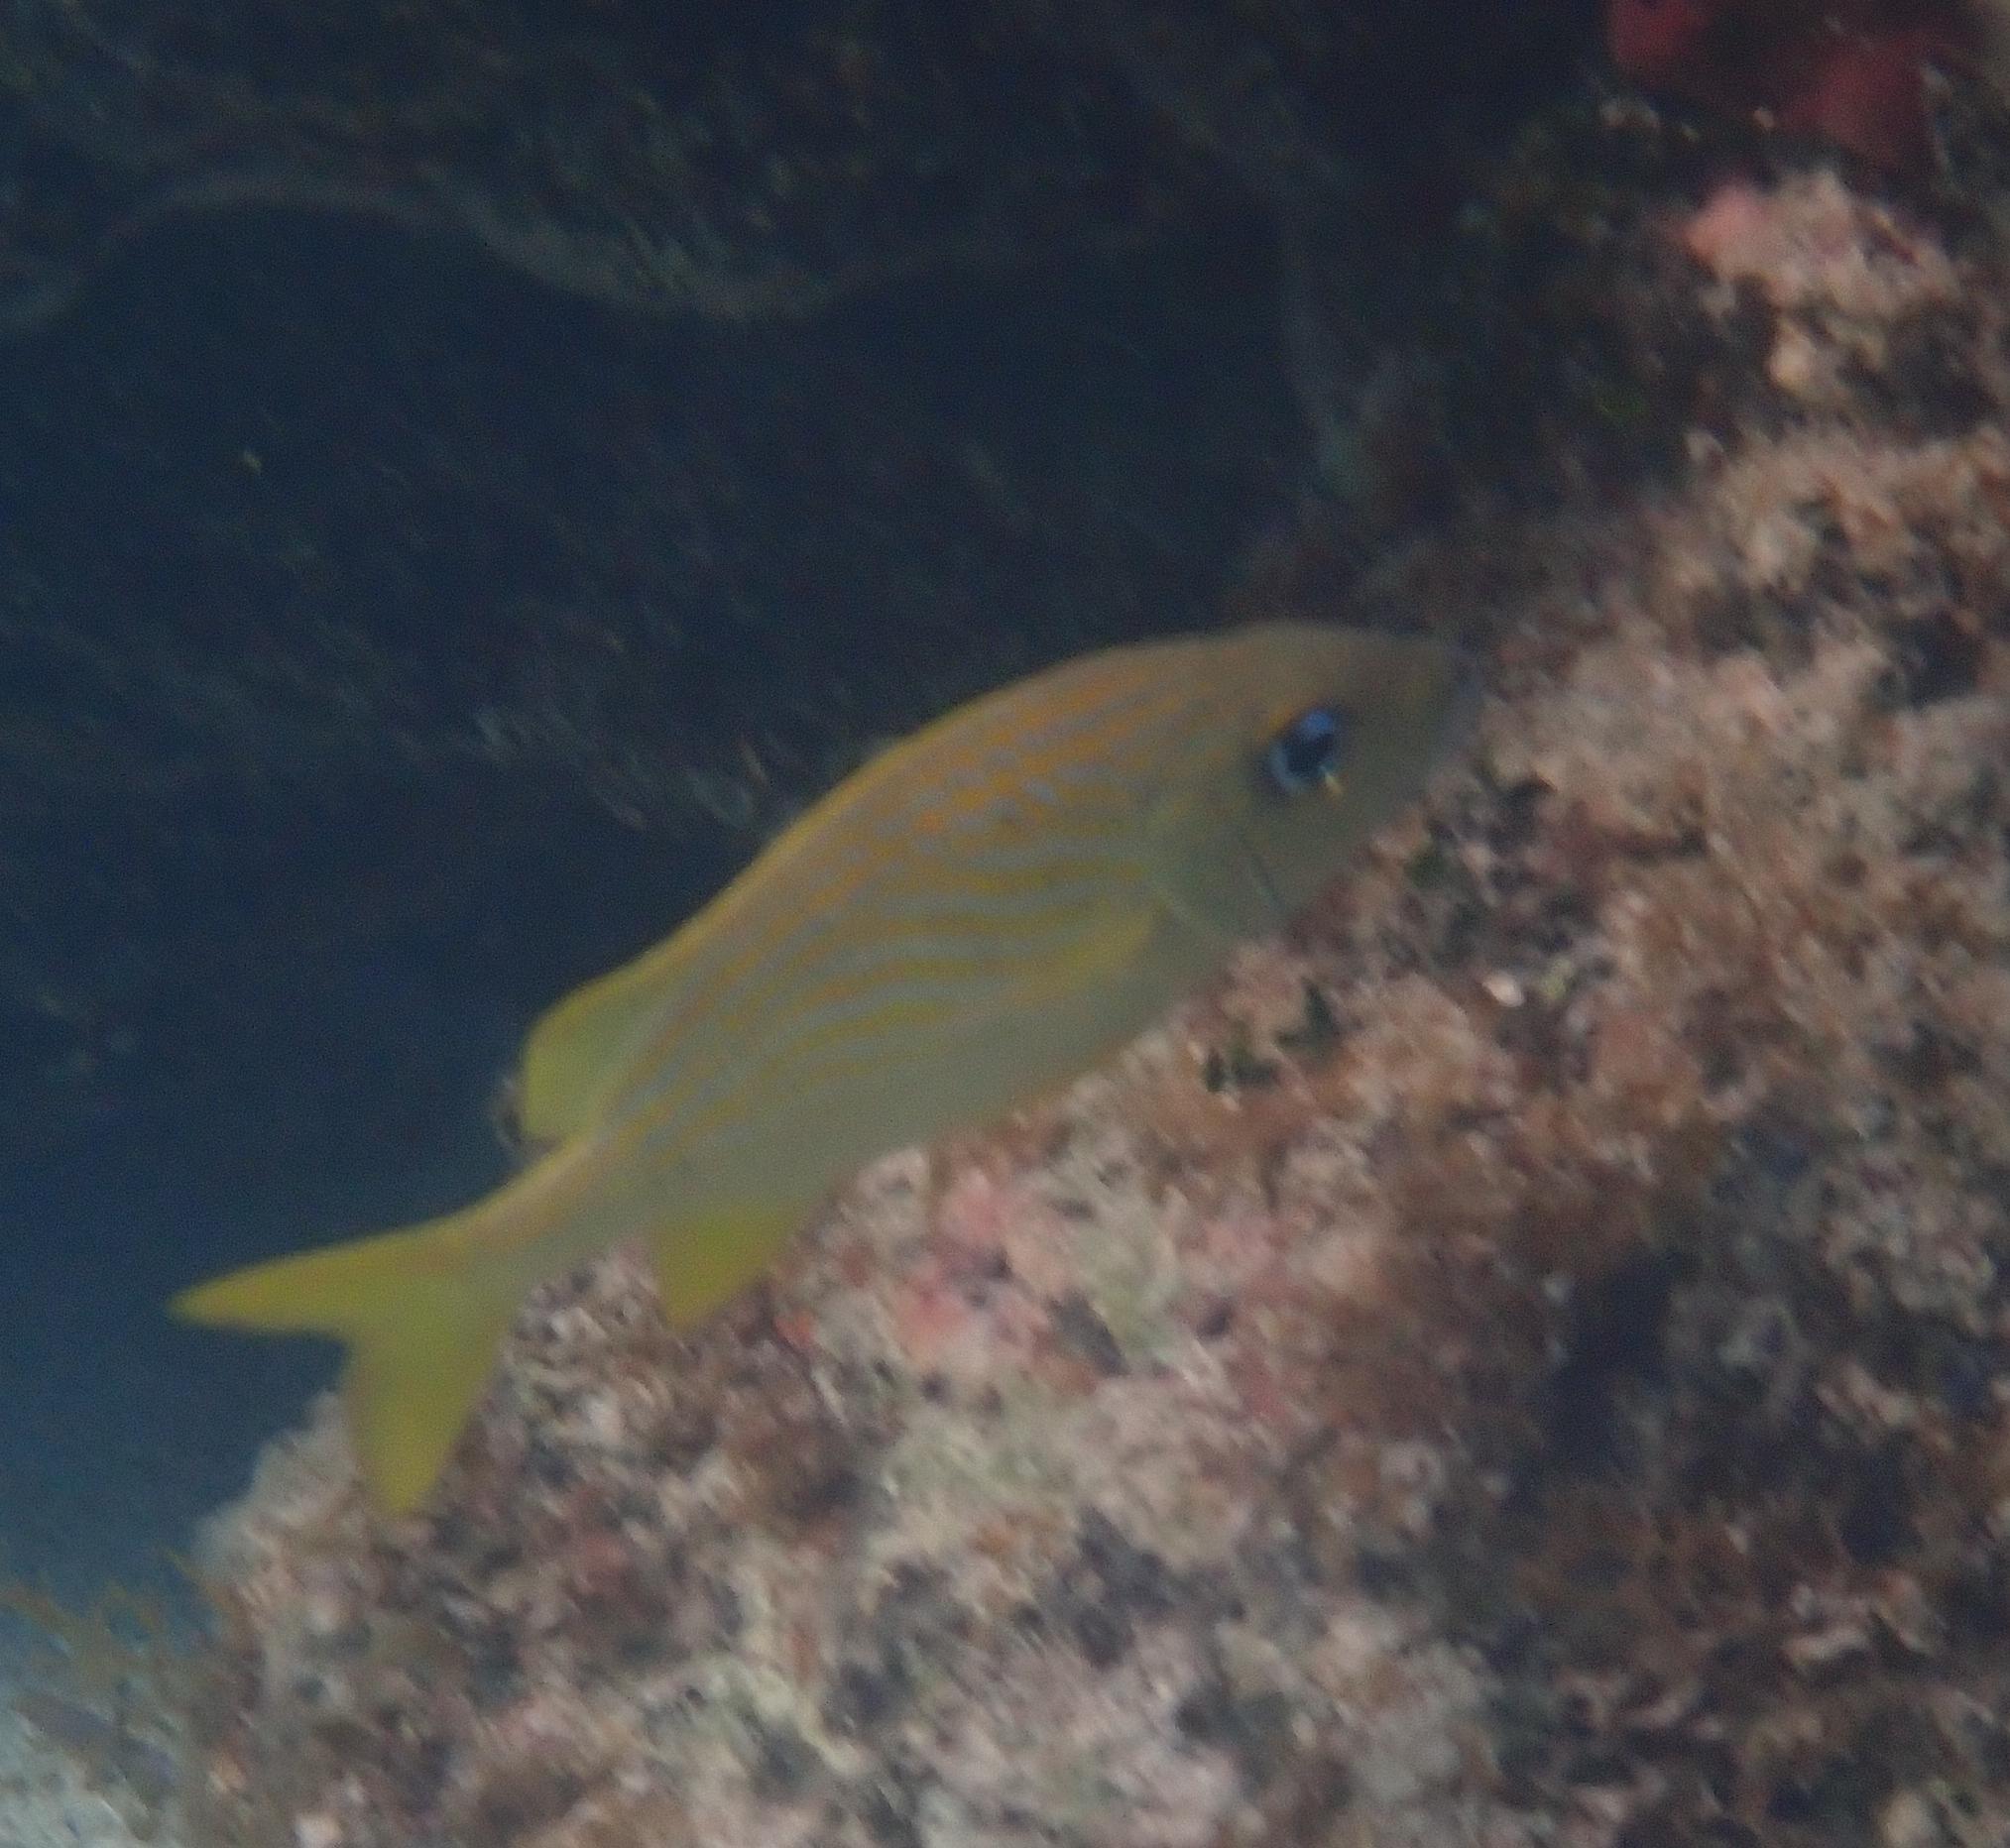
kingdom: Animalia
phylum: Chordata
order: Perciformes
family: Haemulidae
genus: Haemulon
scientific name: Haemulon flavolineatum
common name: French grunt
